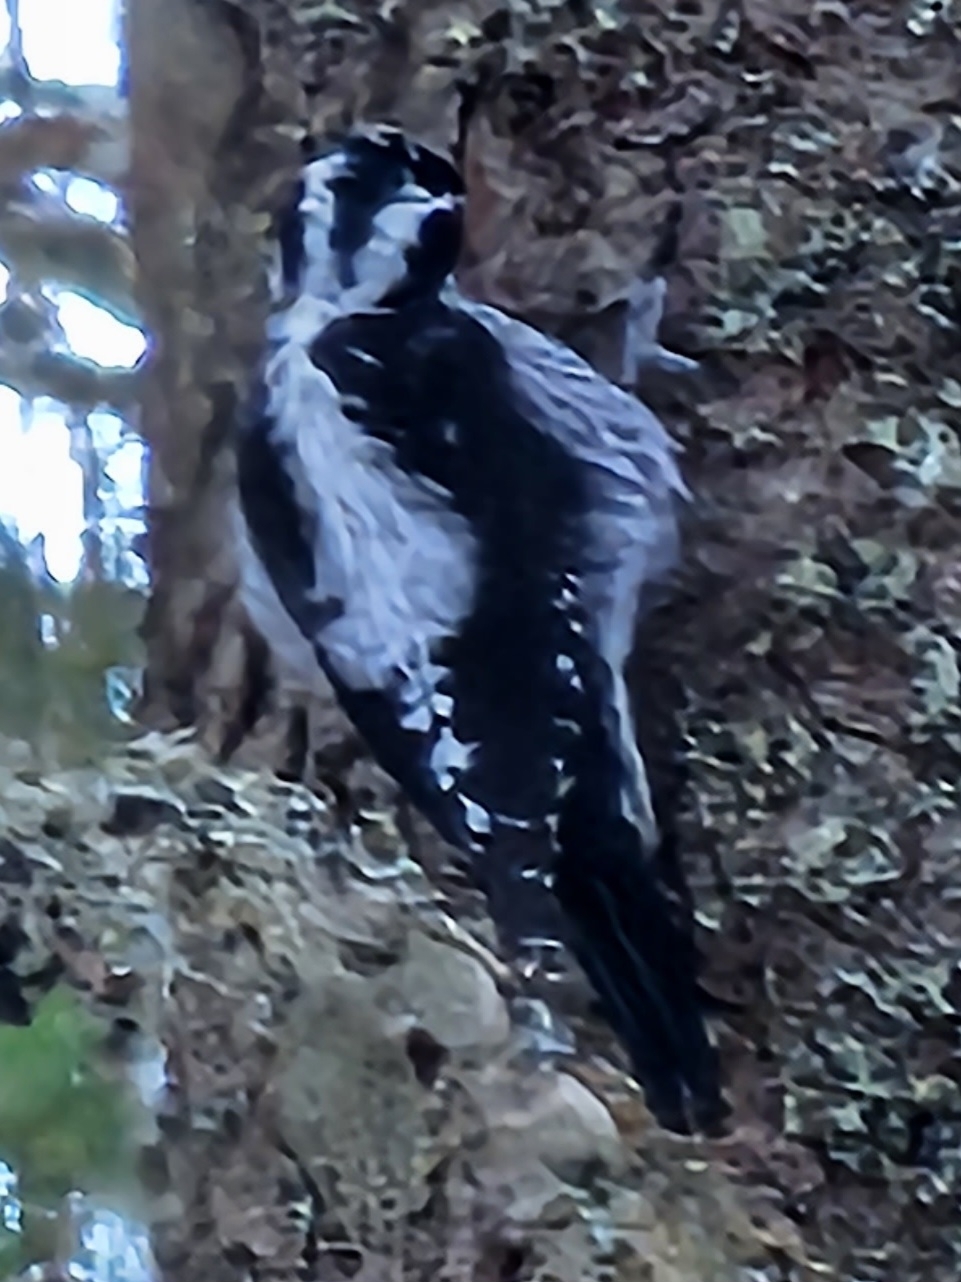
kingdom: Animalia
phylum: Chordata
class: Aves
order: Piciformes
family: Picidae
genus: Picoides
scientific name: Picoides tridactylus
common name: Eurasian three-toed woodpecker
